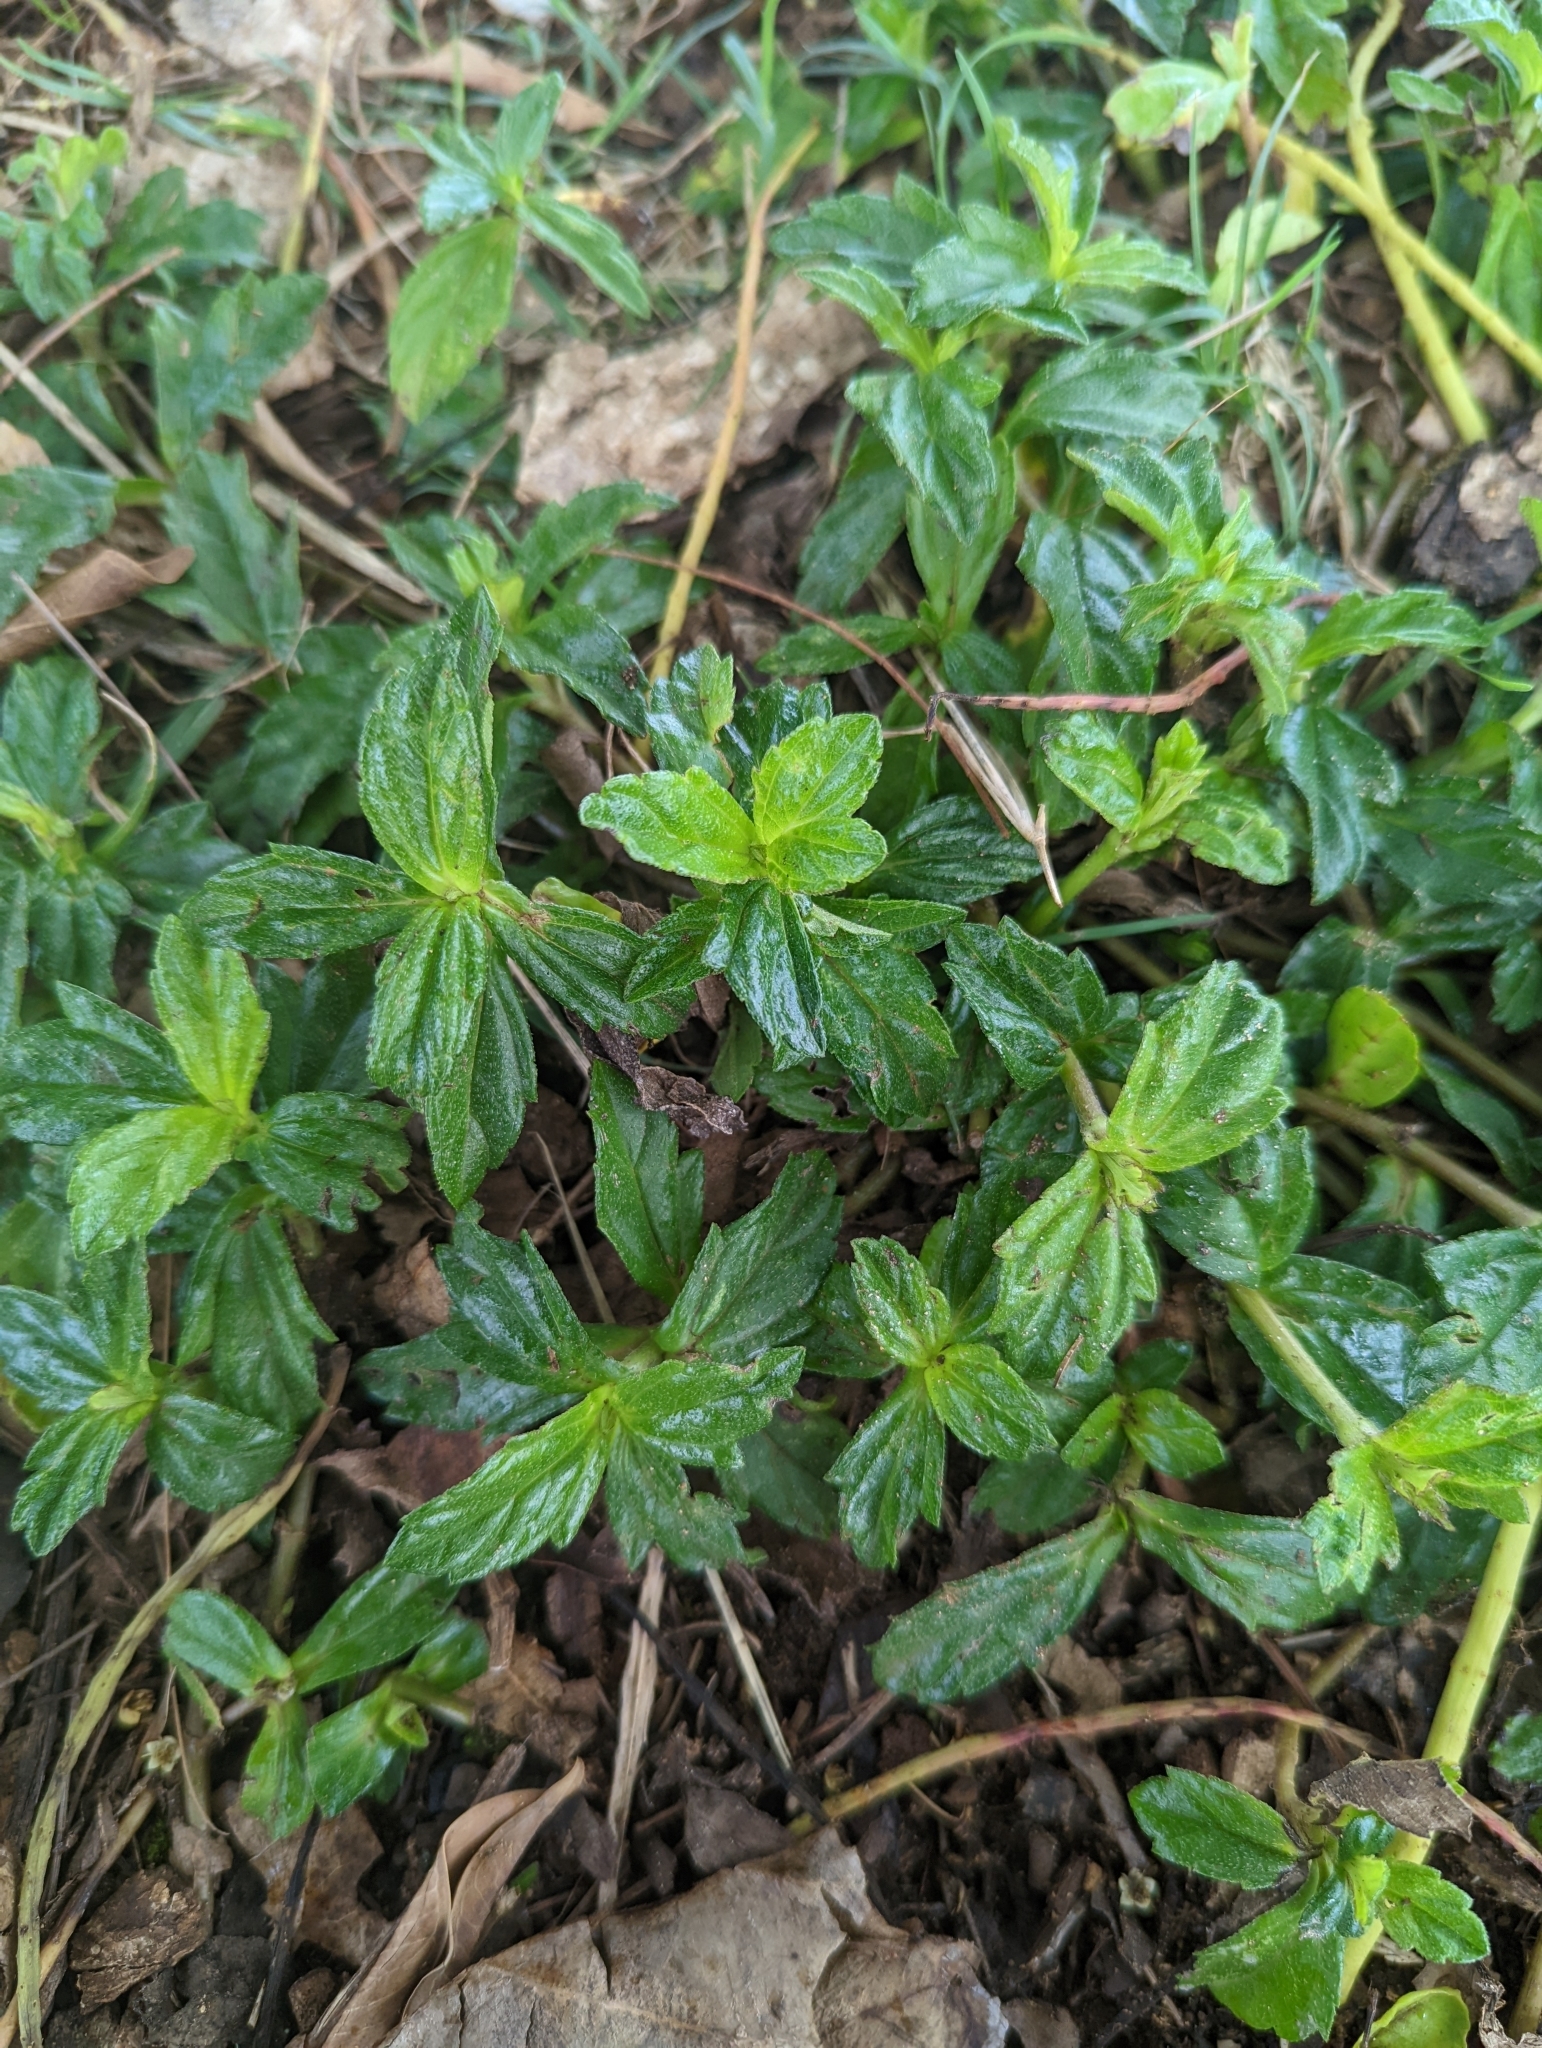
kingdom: Plantae
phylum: Tracheophyta
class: Magnoliopsida
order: Asterales
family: Asteraceae
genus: Sphagneticola
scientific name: Sphagneticola trilobata
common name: Bay biscayne creeping-oxeye
